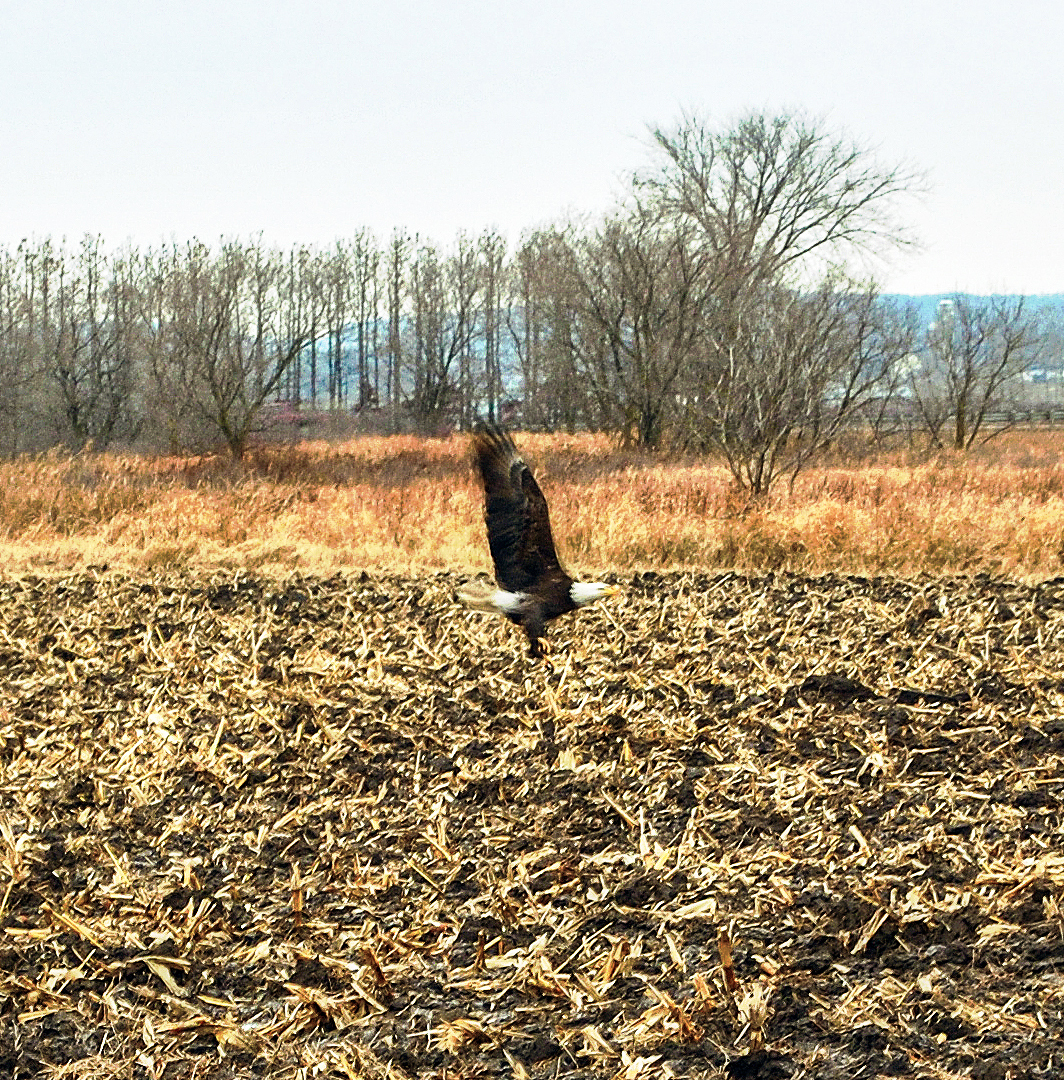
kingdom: Animalia
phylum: Chordata
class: Aves
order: Accipitriformes
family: Accipitridae
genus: Haliaeetus
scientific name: Haliaeetus leucocephalus
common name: Bald eagle
